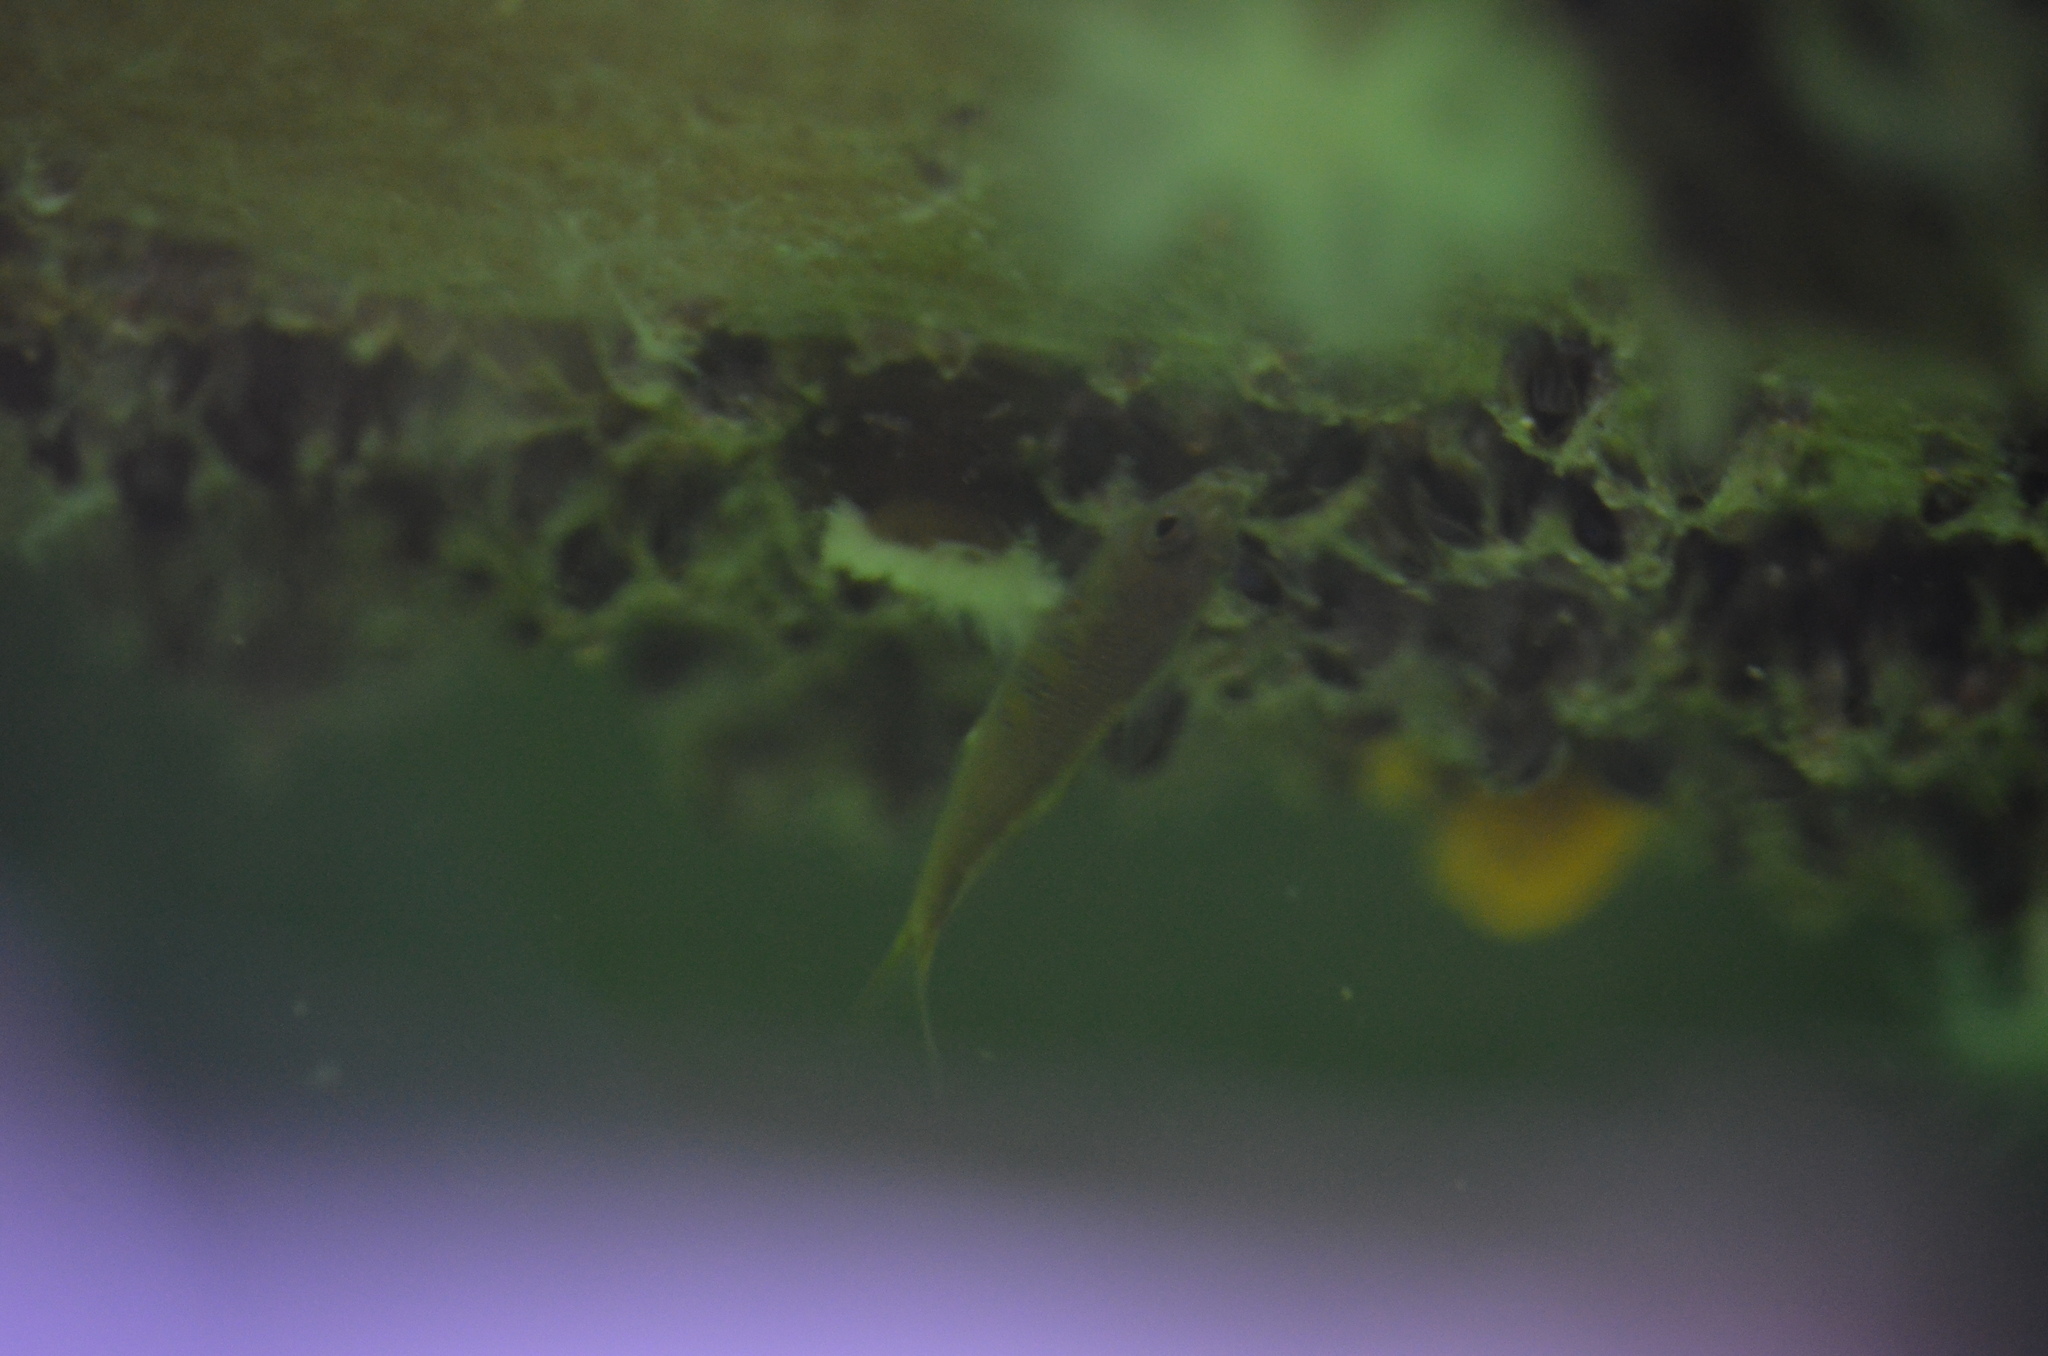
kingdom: Animalia
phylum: Chordata
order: Perciformes
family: Embiotocidae
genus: Cymatogaster
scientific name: Cymatogaster aggregata
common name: Shiner perch
